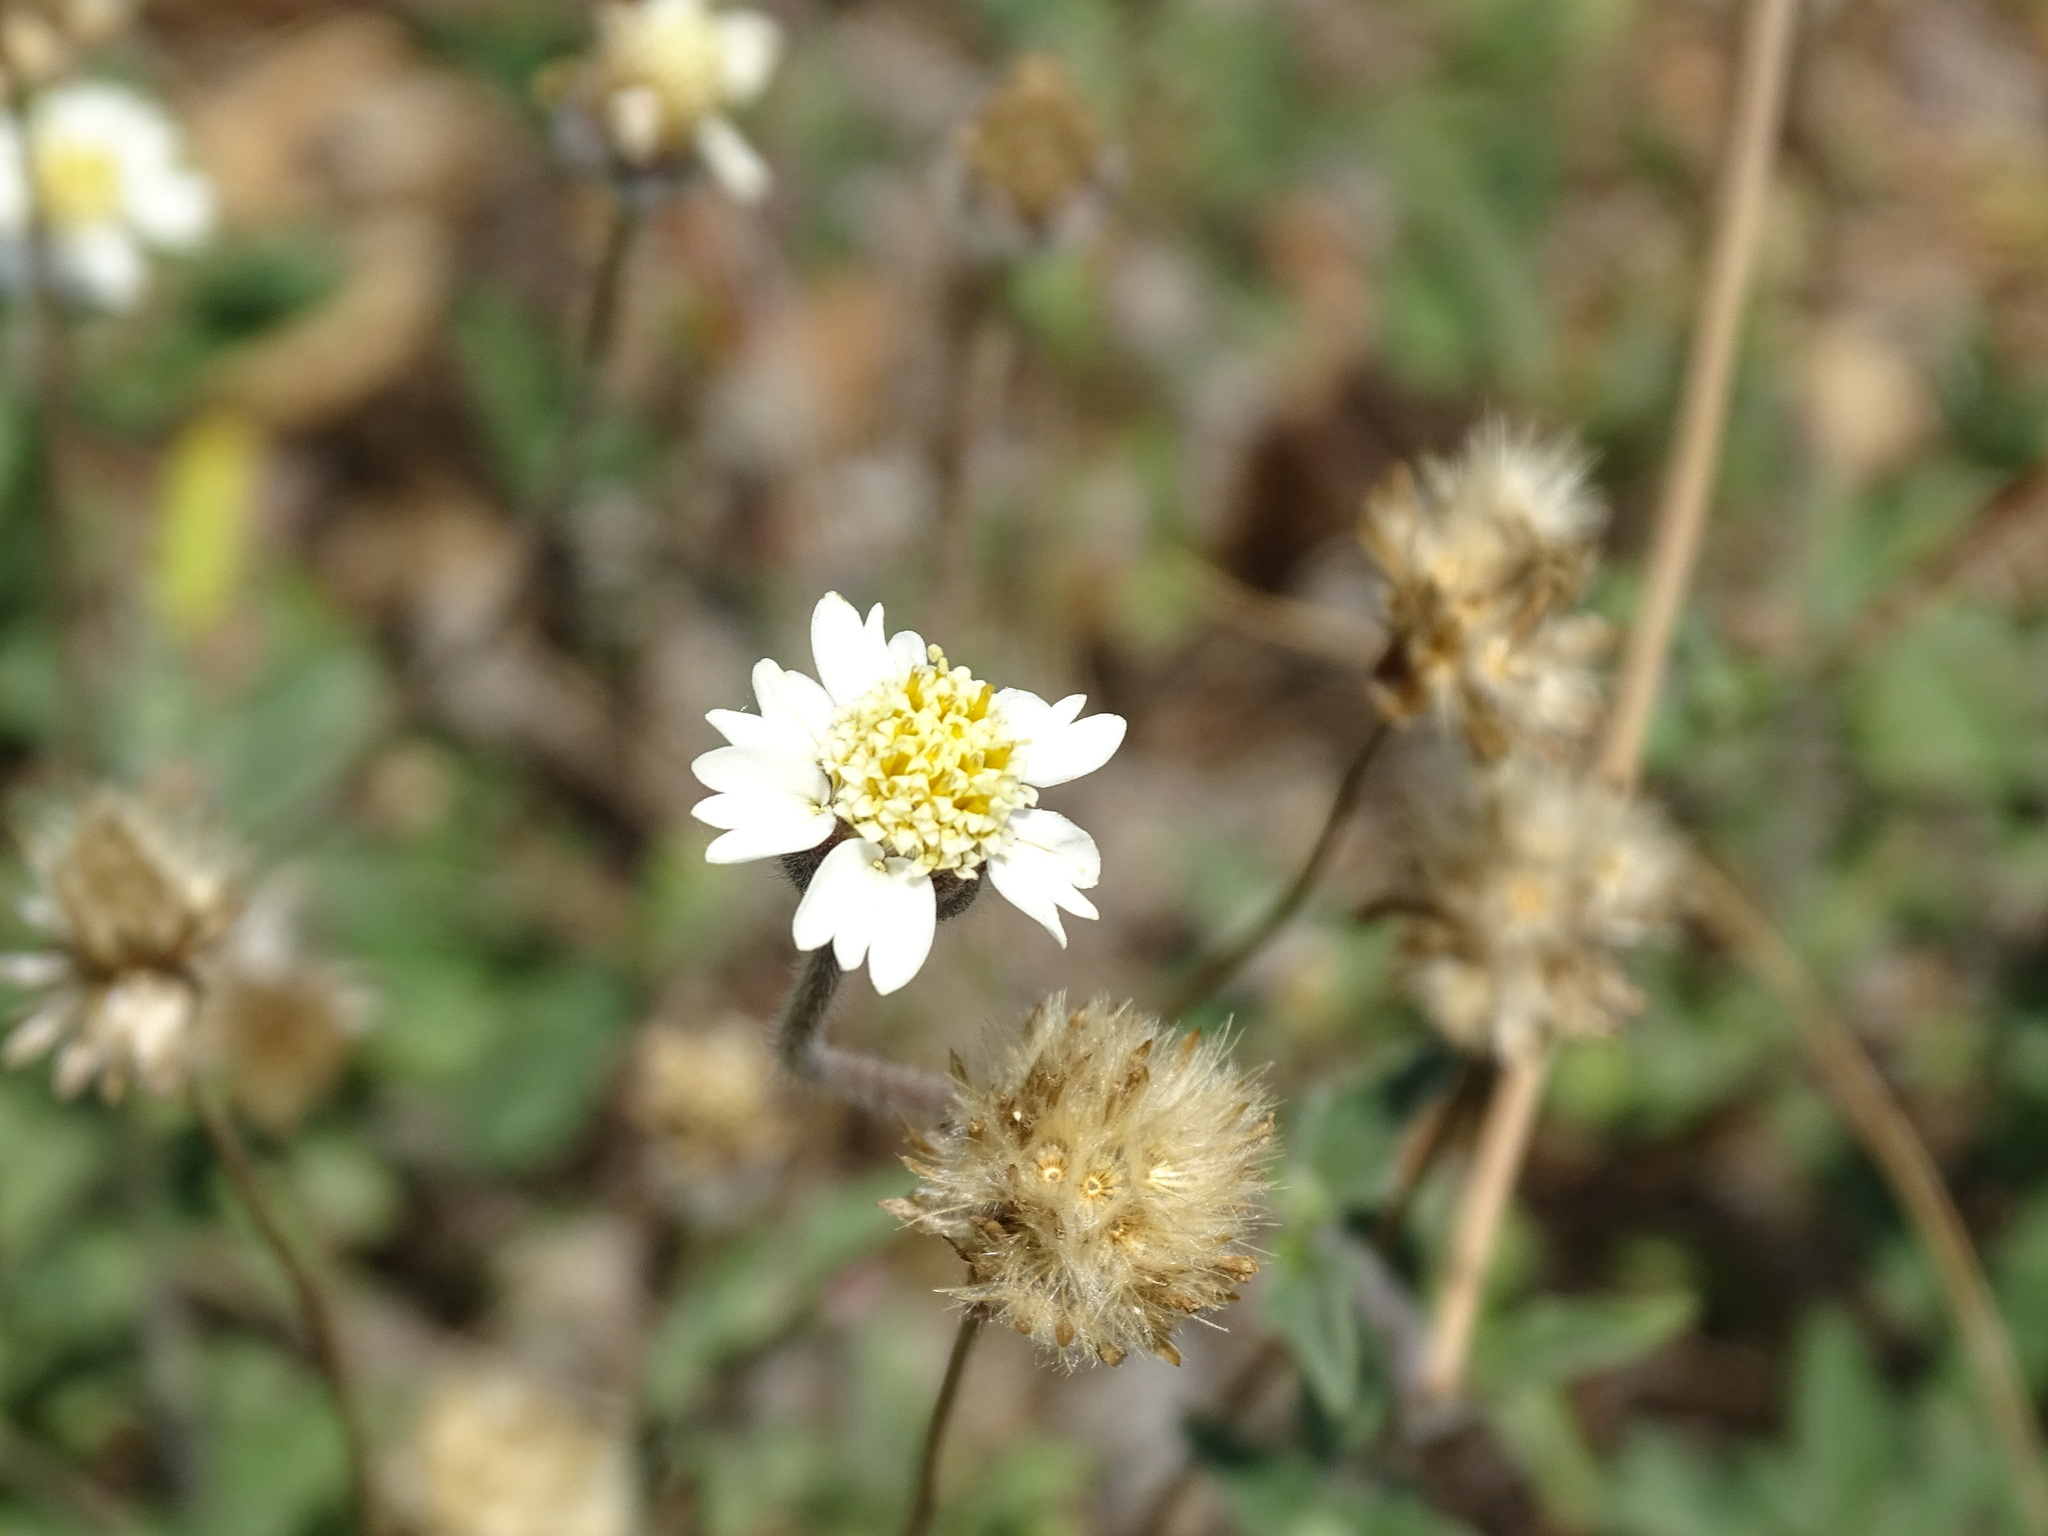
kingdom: Plantae
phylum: Tracheophyta
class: Magnoliopsida
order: Asterales
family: Asteraceae
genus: Tridax
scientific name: Tridax procumbens
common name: Coatbuttons
